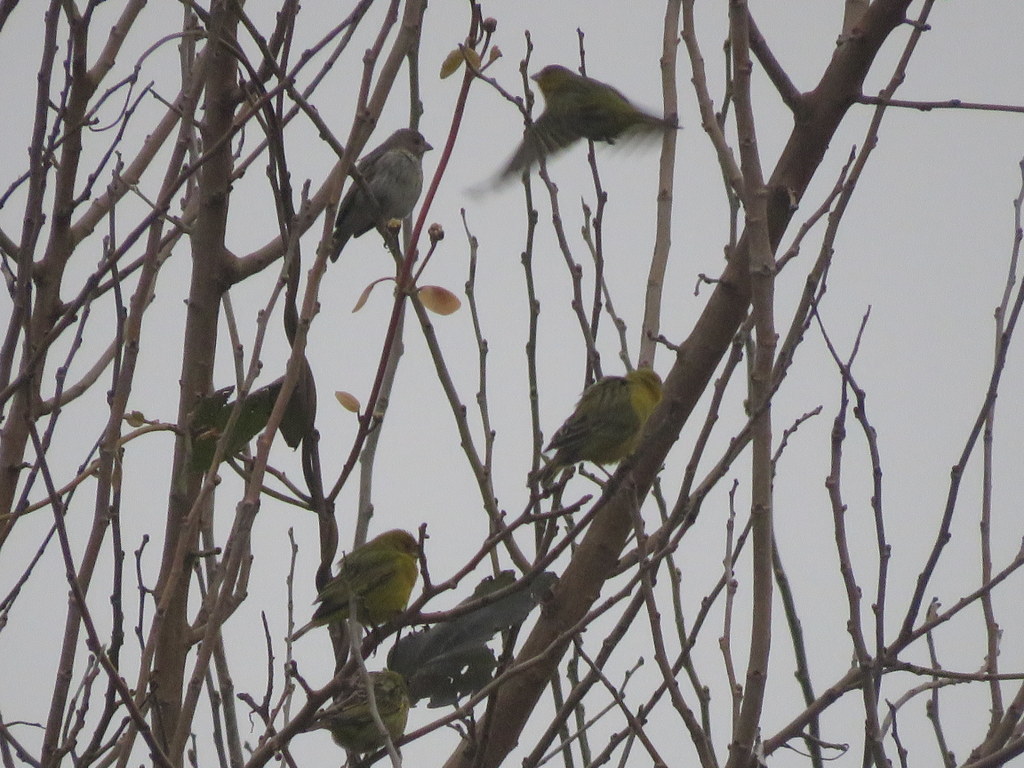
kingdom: Animalia
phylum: Chordata
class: Aves
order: Passeriformes
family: Thraupidae
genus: Sicalis
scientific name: Sicalis flaveola
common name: Saffron finch
